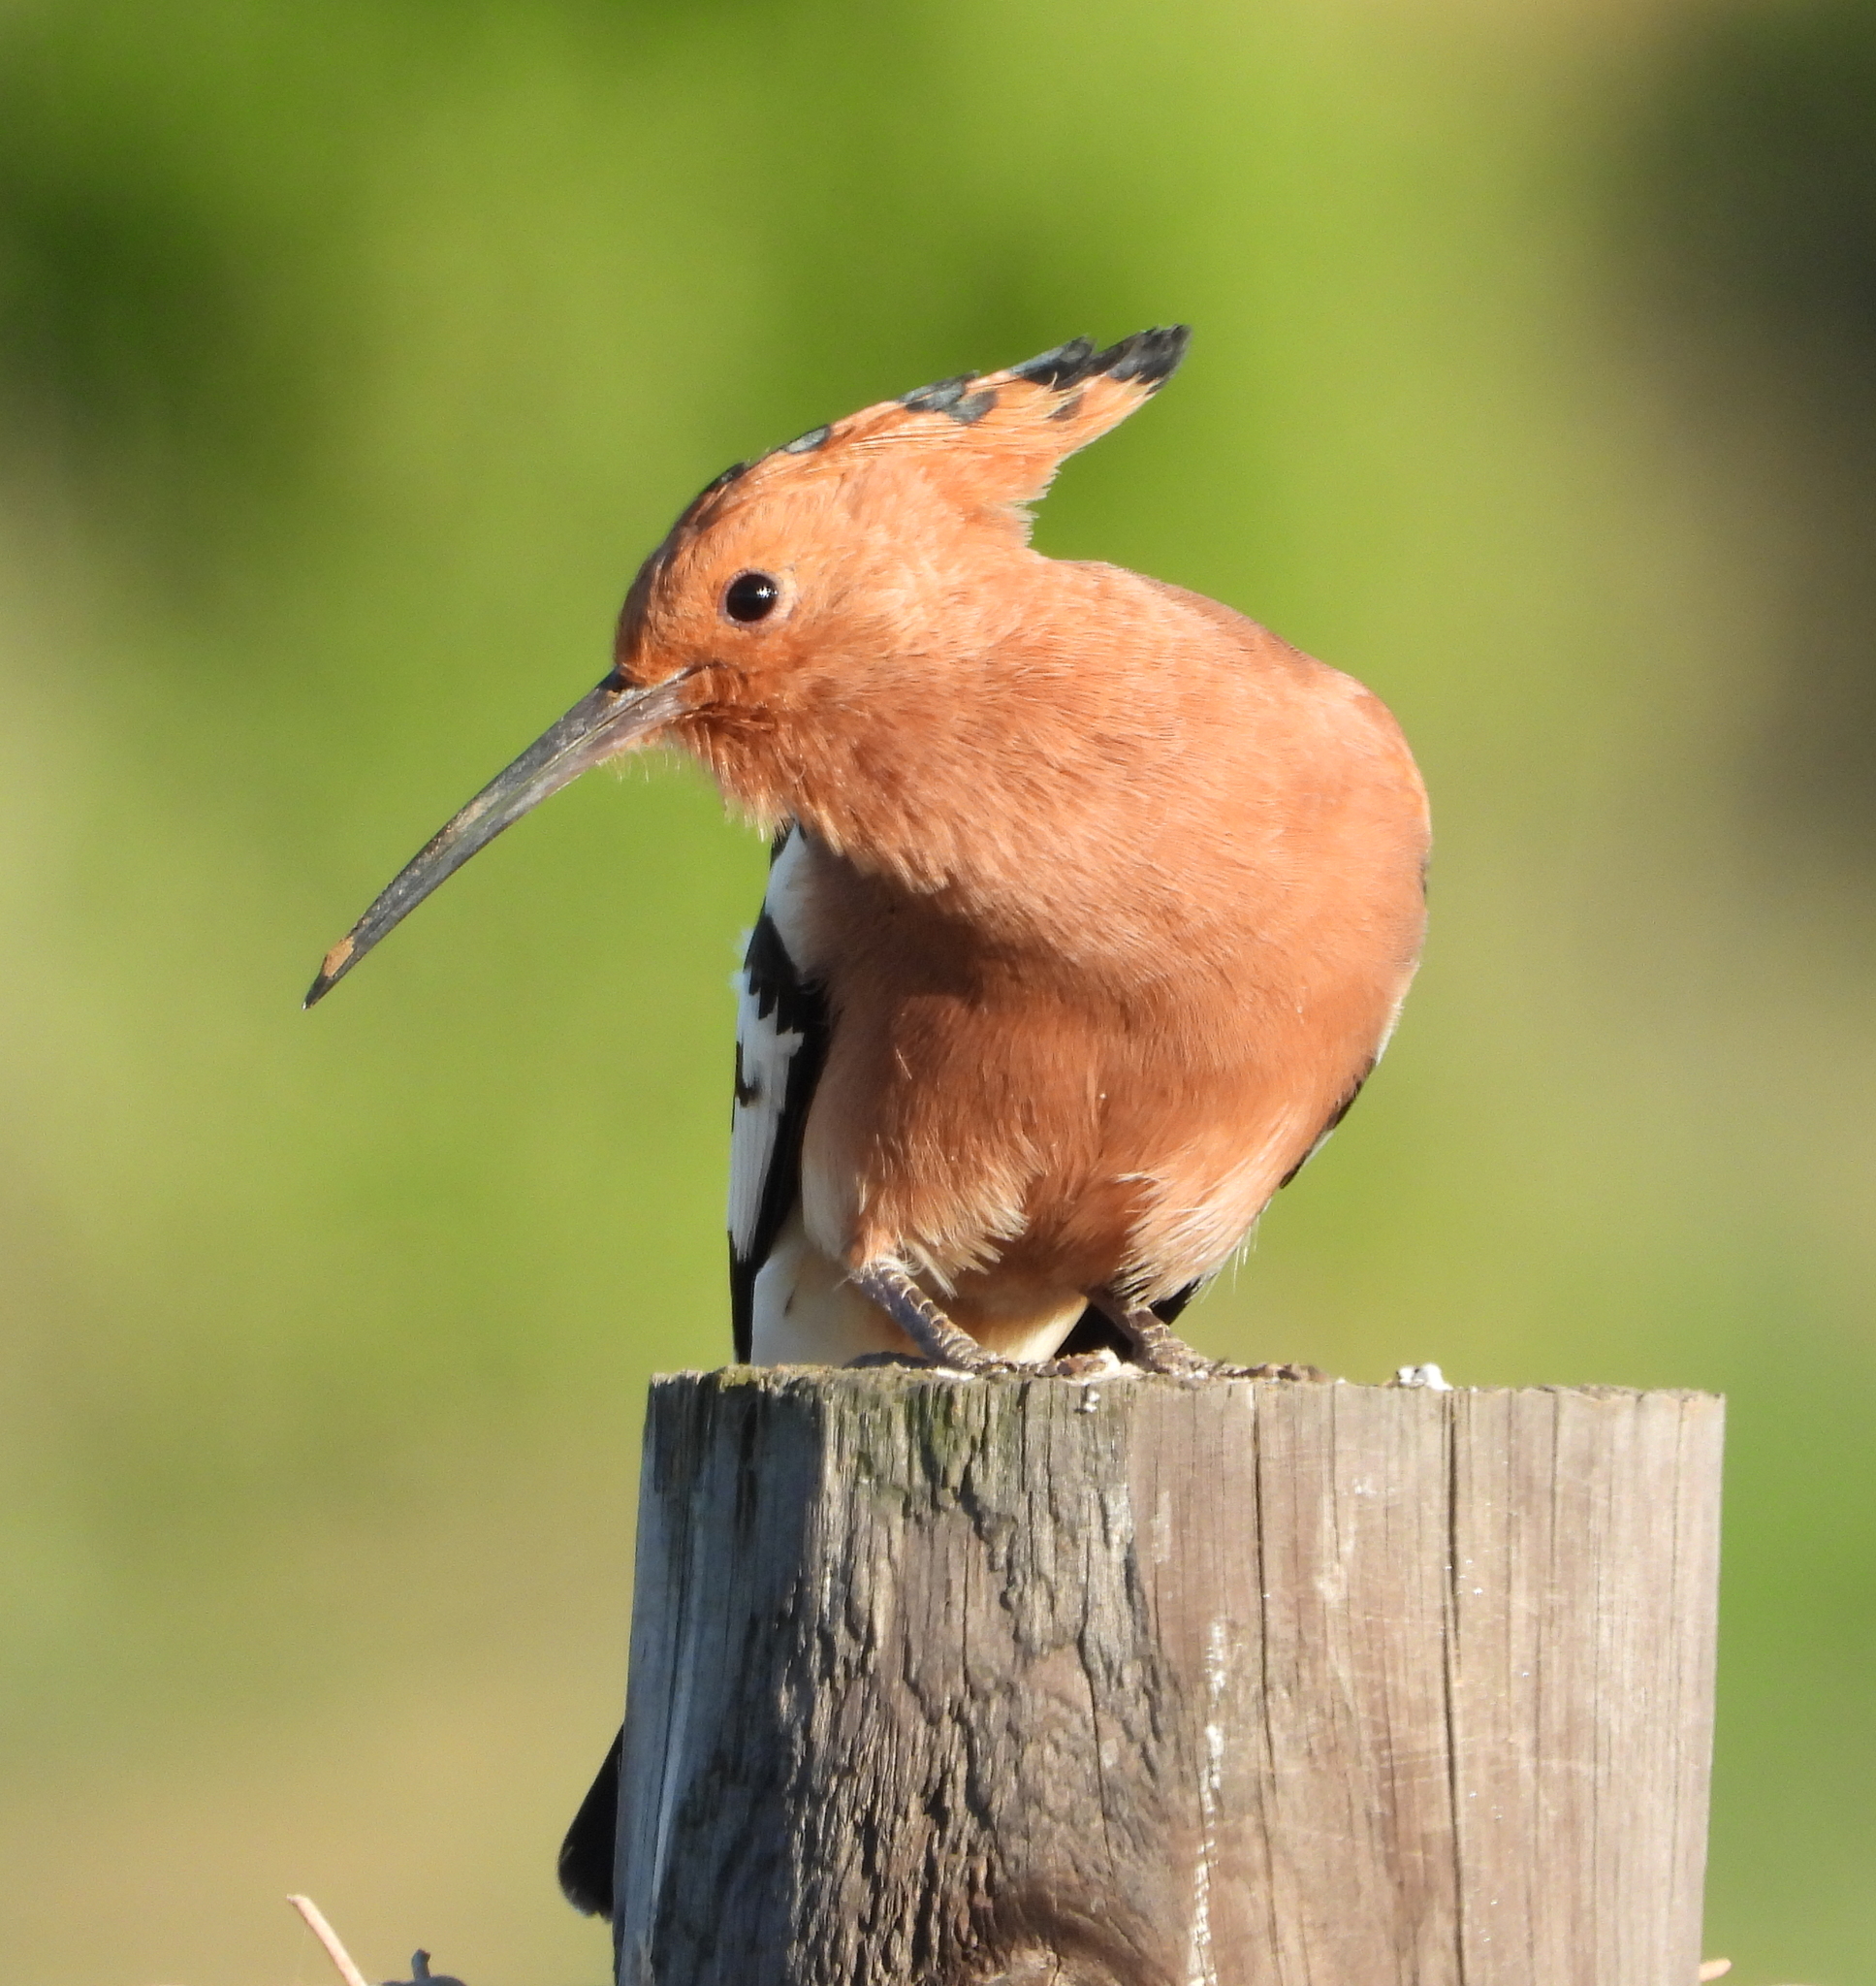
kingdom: Animalia
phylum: Chordata
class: Aves
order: Bucerotiformes
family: Upupidae
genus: Upupa
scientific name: Upupa africana
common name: African hoopoe
